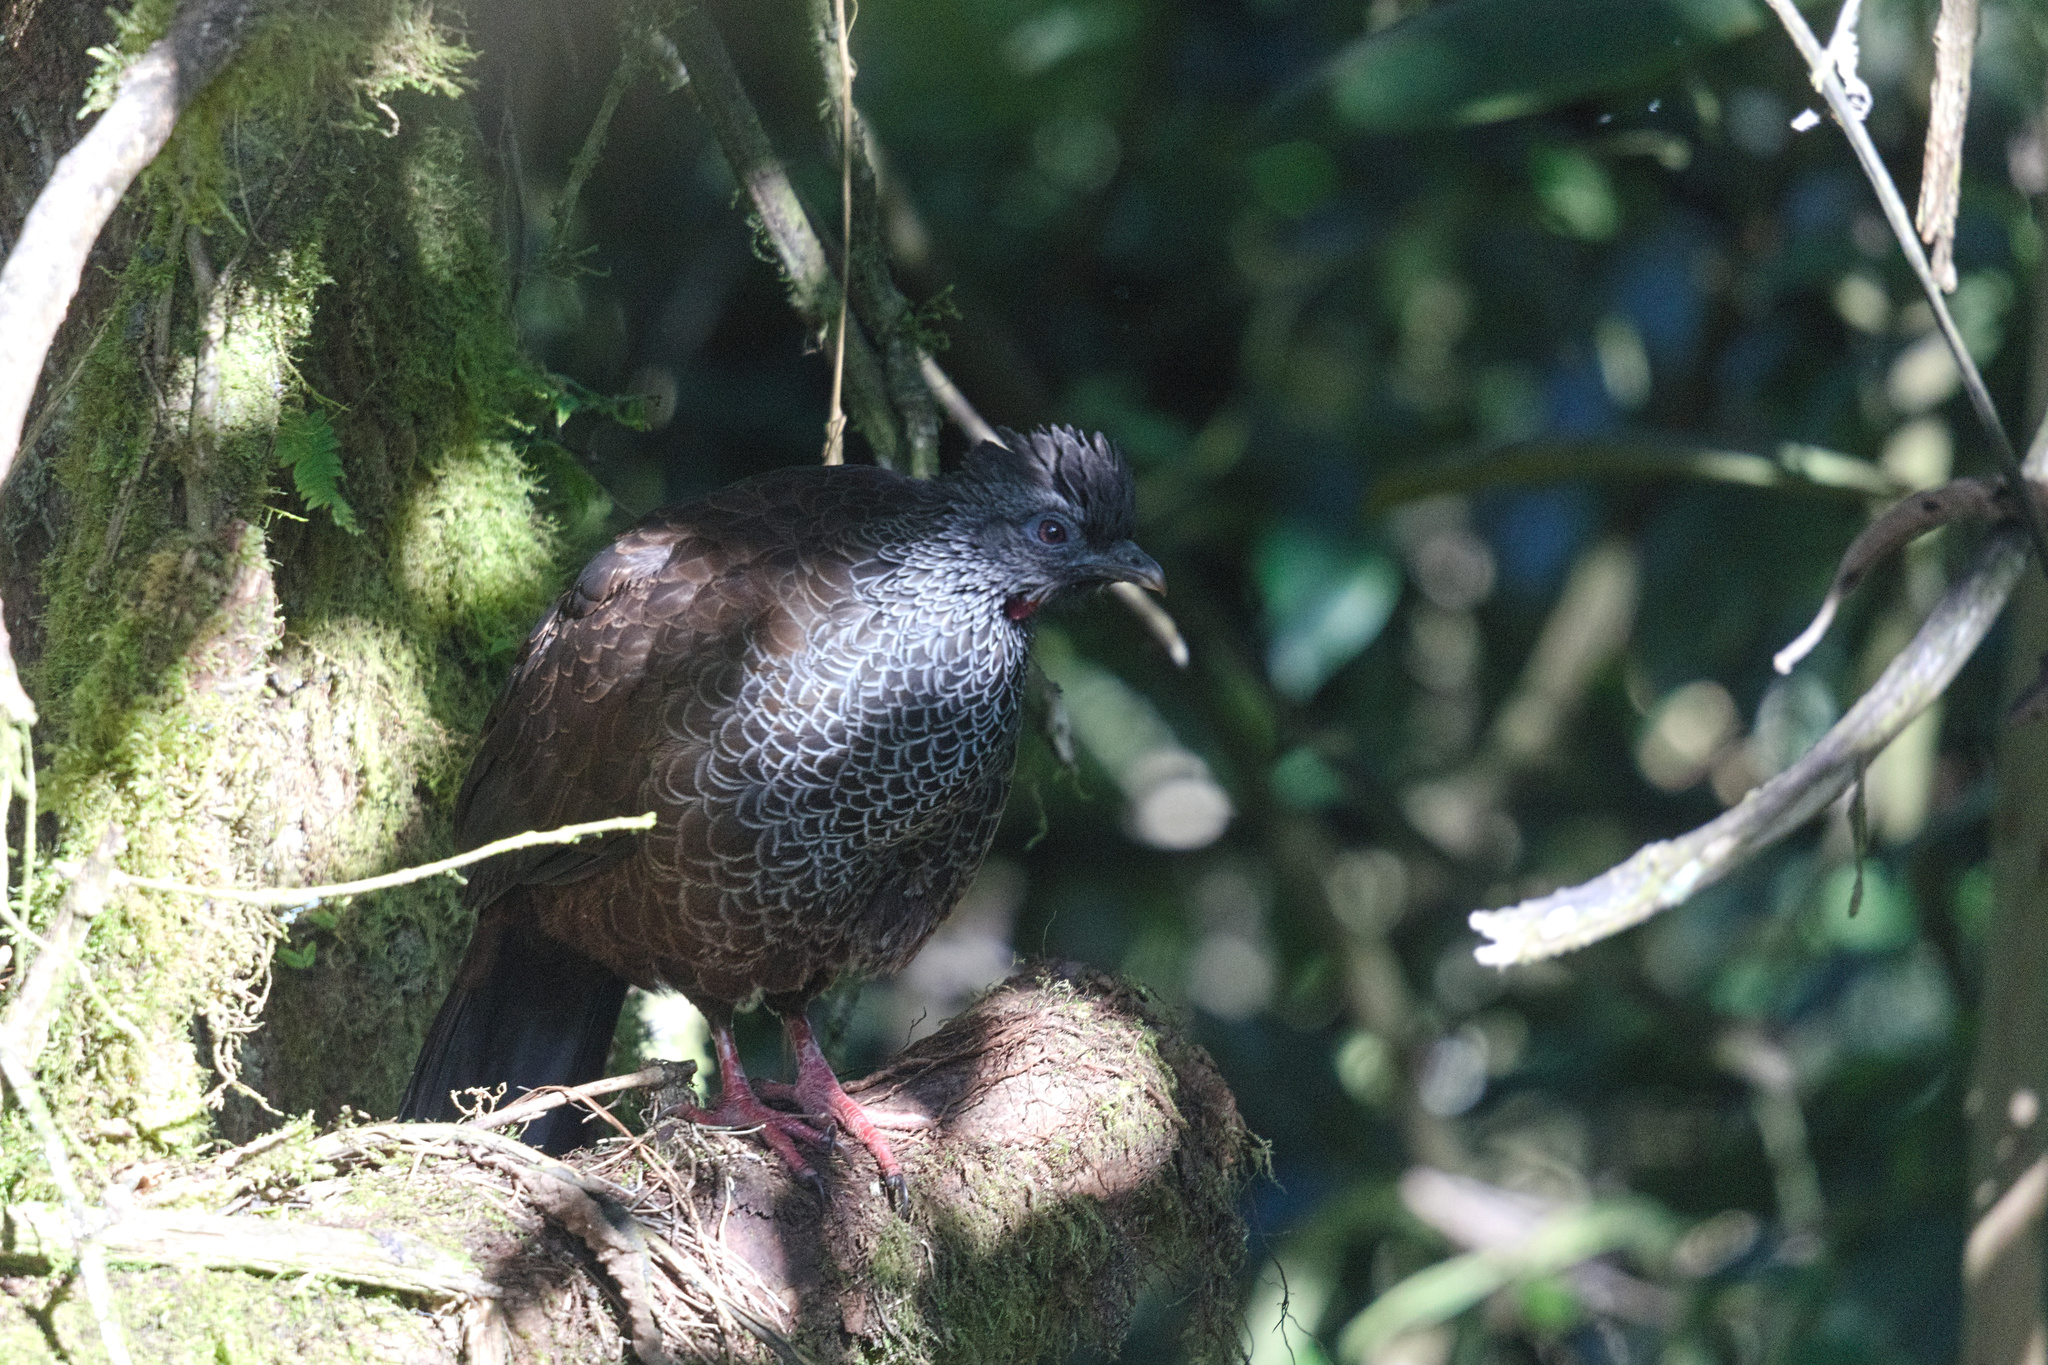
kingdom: Animalia
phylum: Chordata
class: Aves
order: Galliformes
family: Cracidae
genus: Penelope
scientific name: Penelope montagnii
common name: Andean guan
